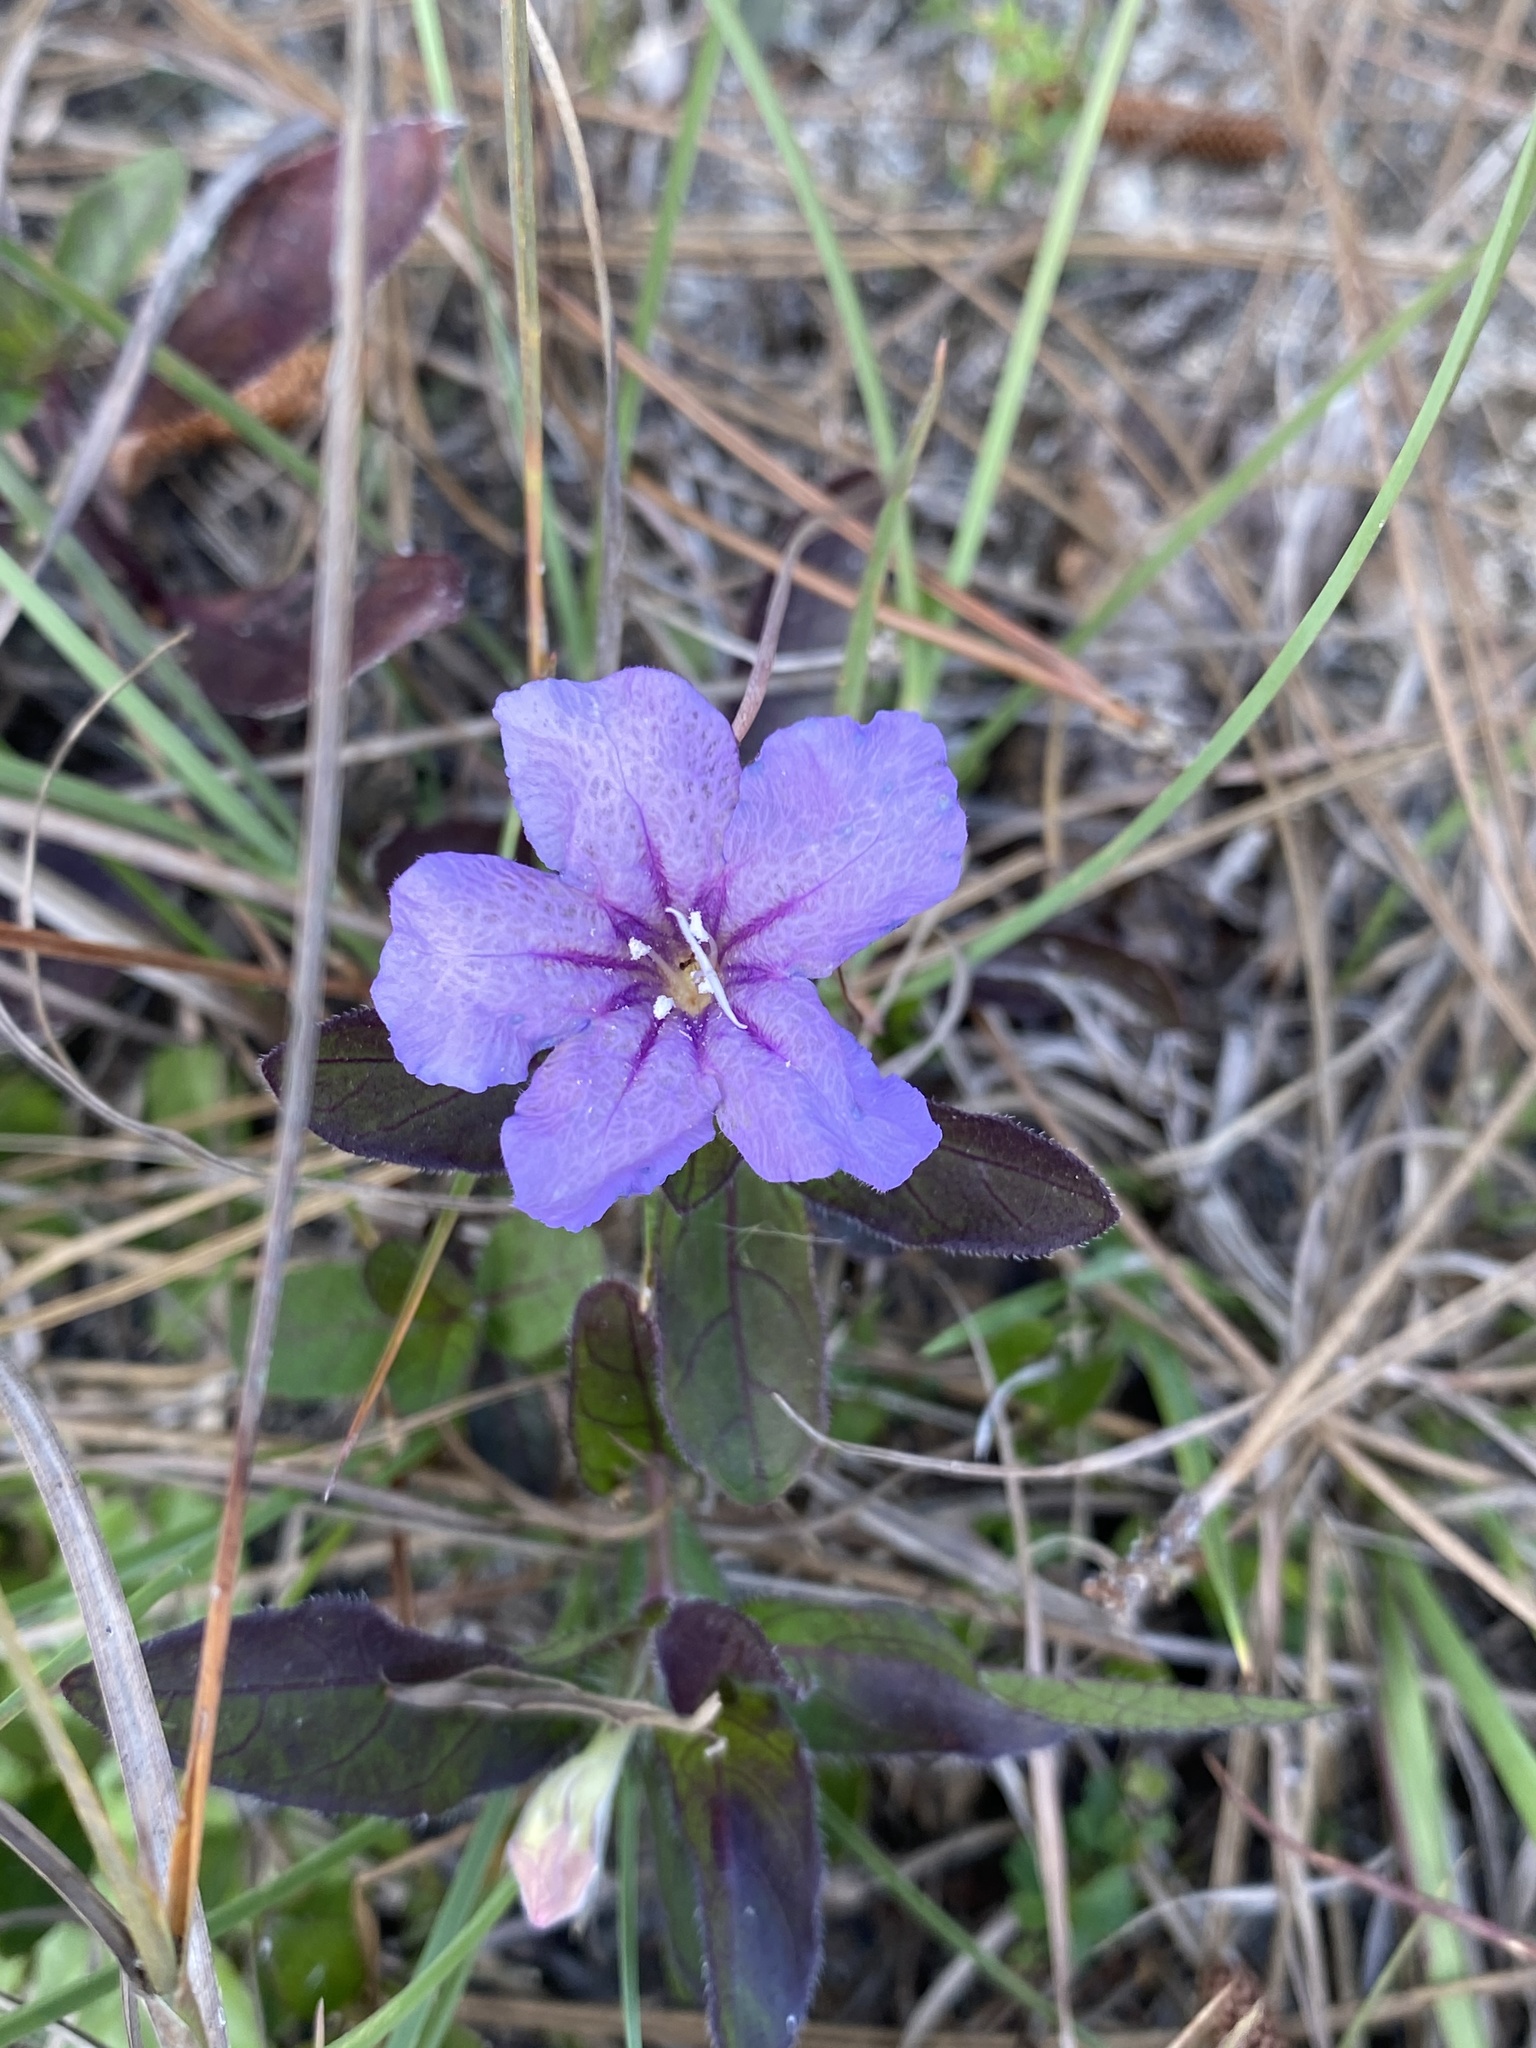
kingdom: Plantae
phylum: Tracheophyta
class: Magnoliopsida
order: Lamiales
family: Acanthaceae
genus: Ruellia
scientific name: Ruellia caroliniensis
